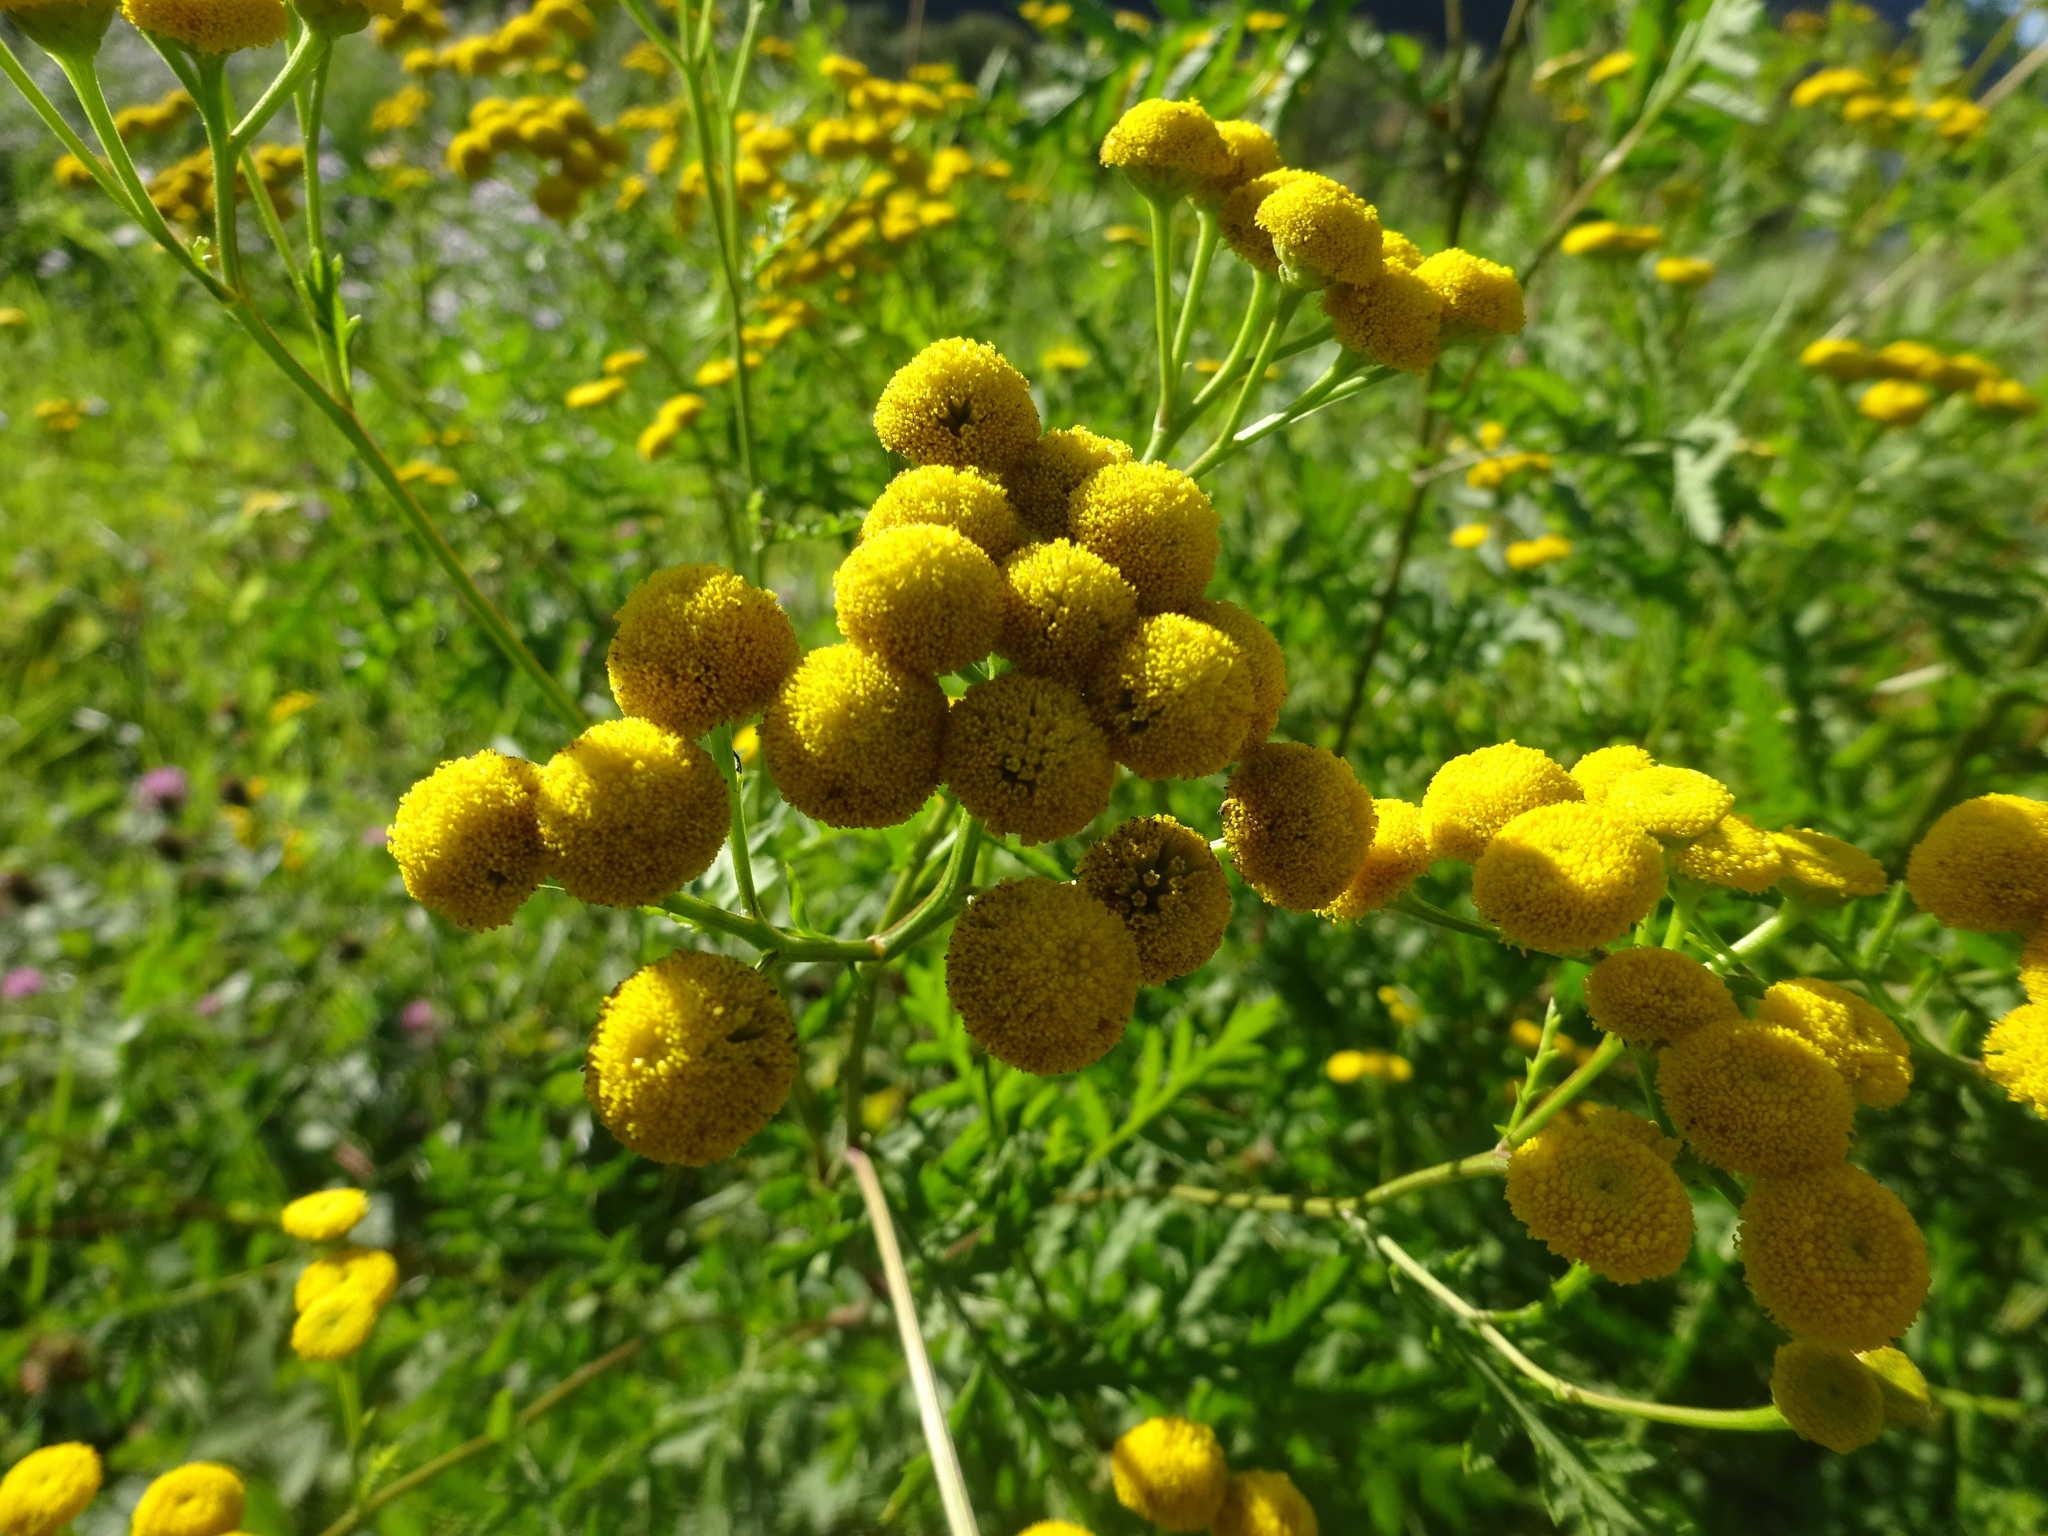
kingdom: Plantae
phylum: Tracheophyta
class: Magnoliopsida
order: Asterales
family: Asteraceae
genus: Tanacetum
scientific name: Tanacetum vulgare
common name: Common tansy
